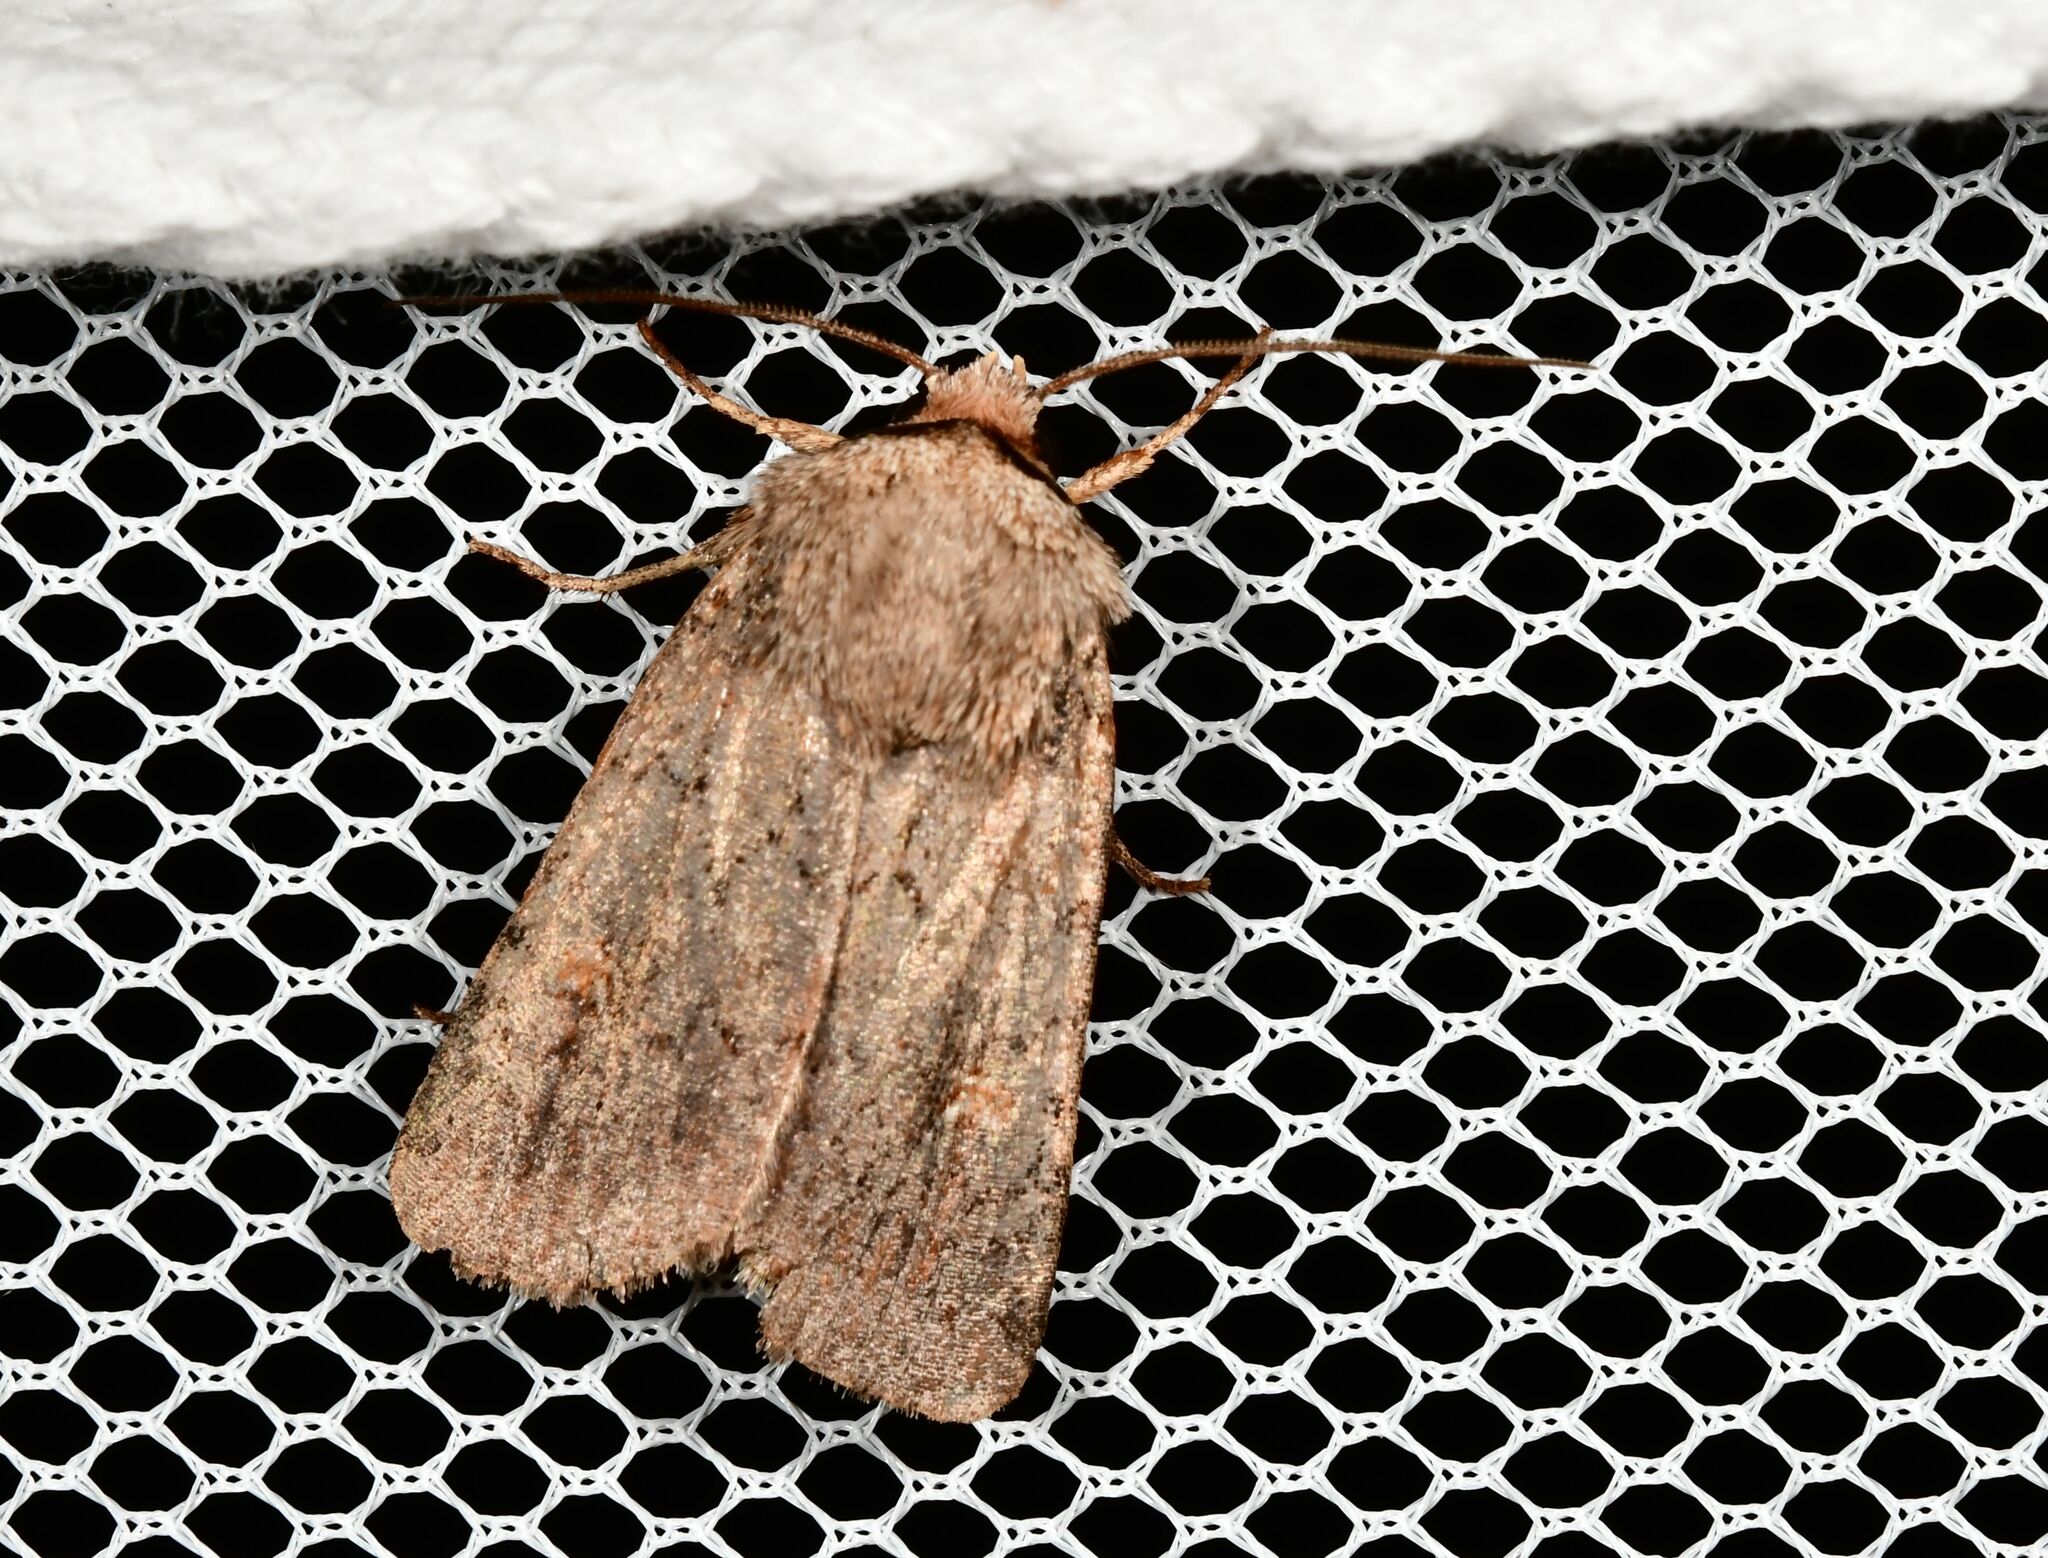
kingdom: Animalia
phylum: Arthropoda
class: Insecta
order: Lepidoptera
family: Noctuidae
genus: Proteuxoa
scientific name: Proteuxoa tetronycha
